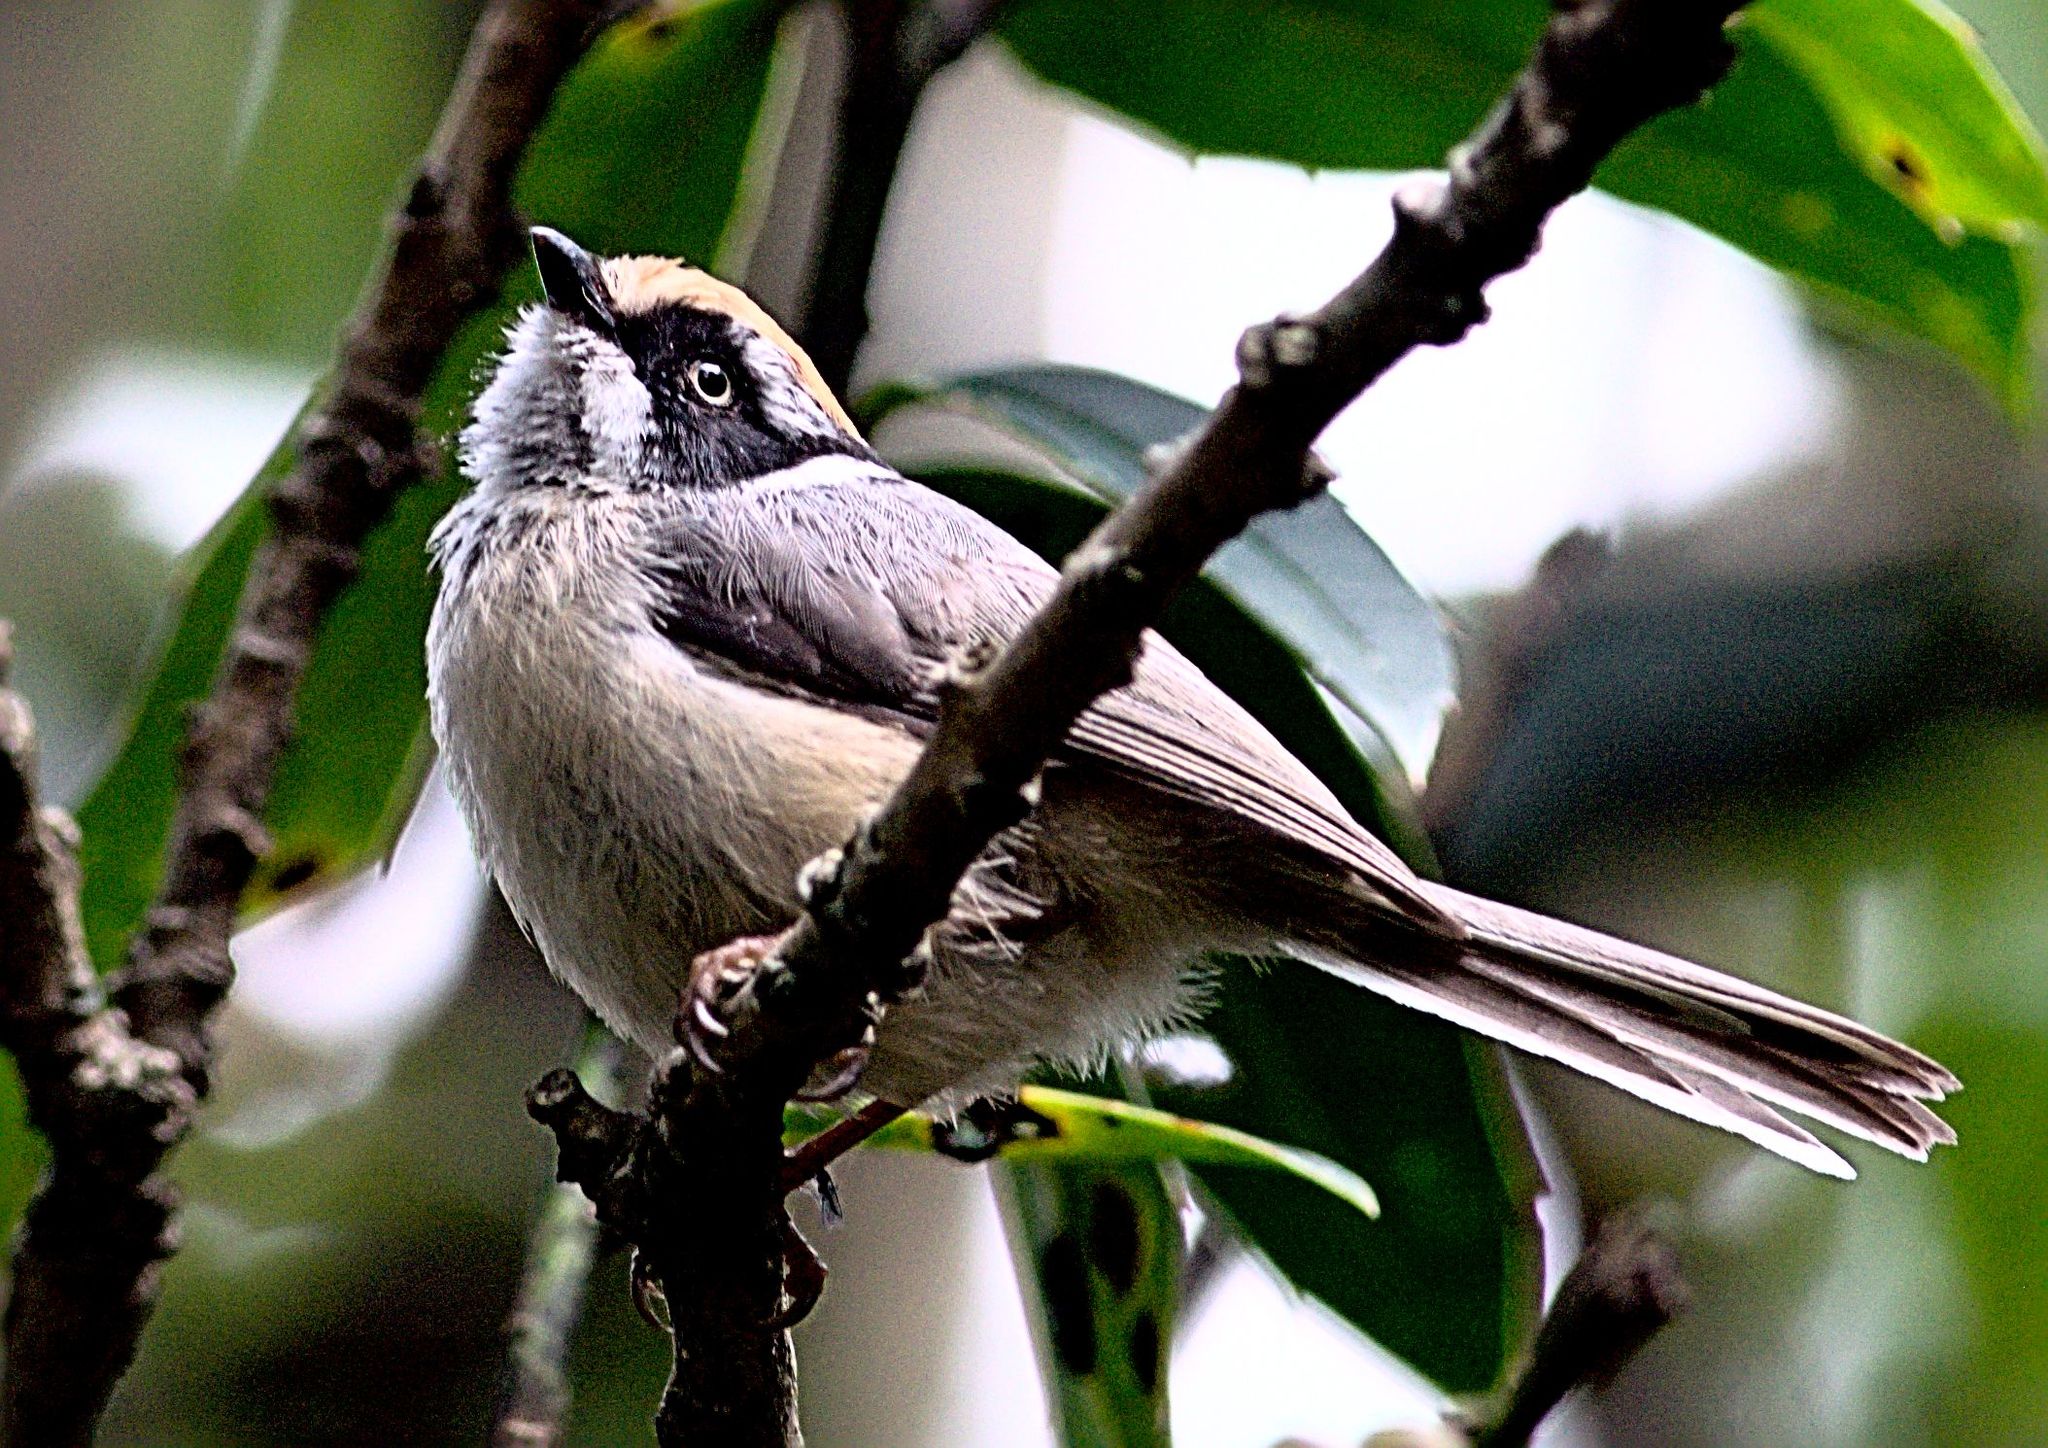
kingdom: Animalia
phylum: Chordata
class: Aves
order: Passeriformes
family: Aegithalidae
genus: Aegithalos
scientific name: Aegithalos concinnus
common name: Black-throated bushtit
